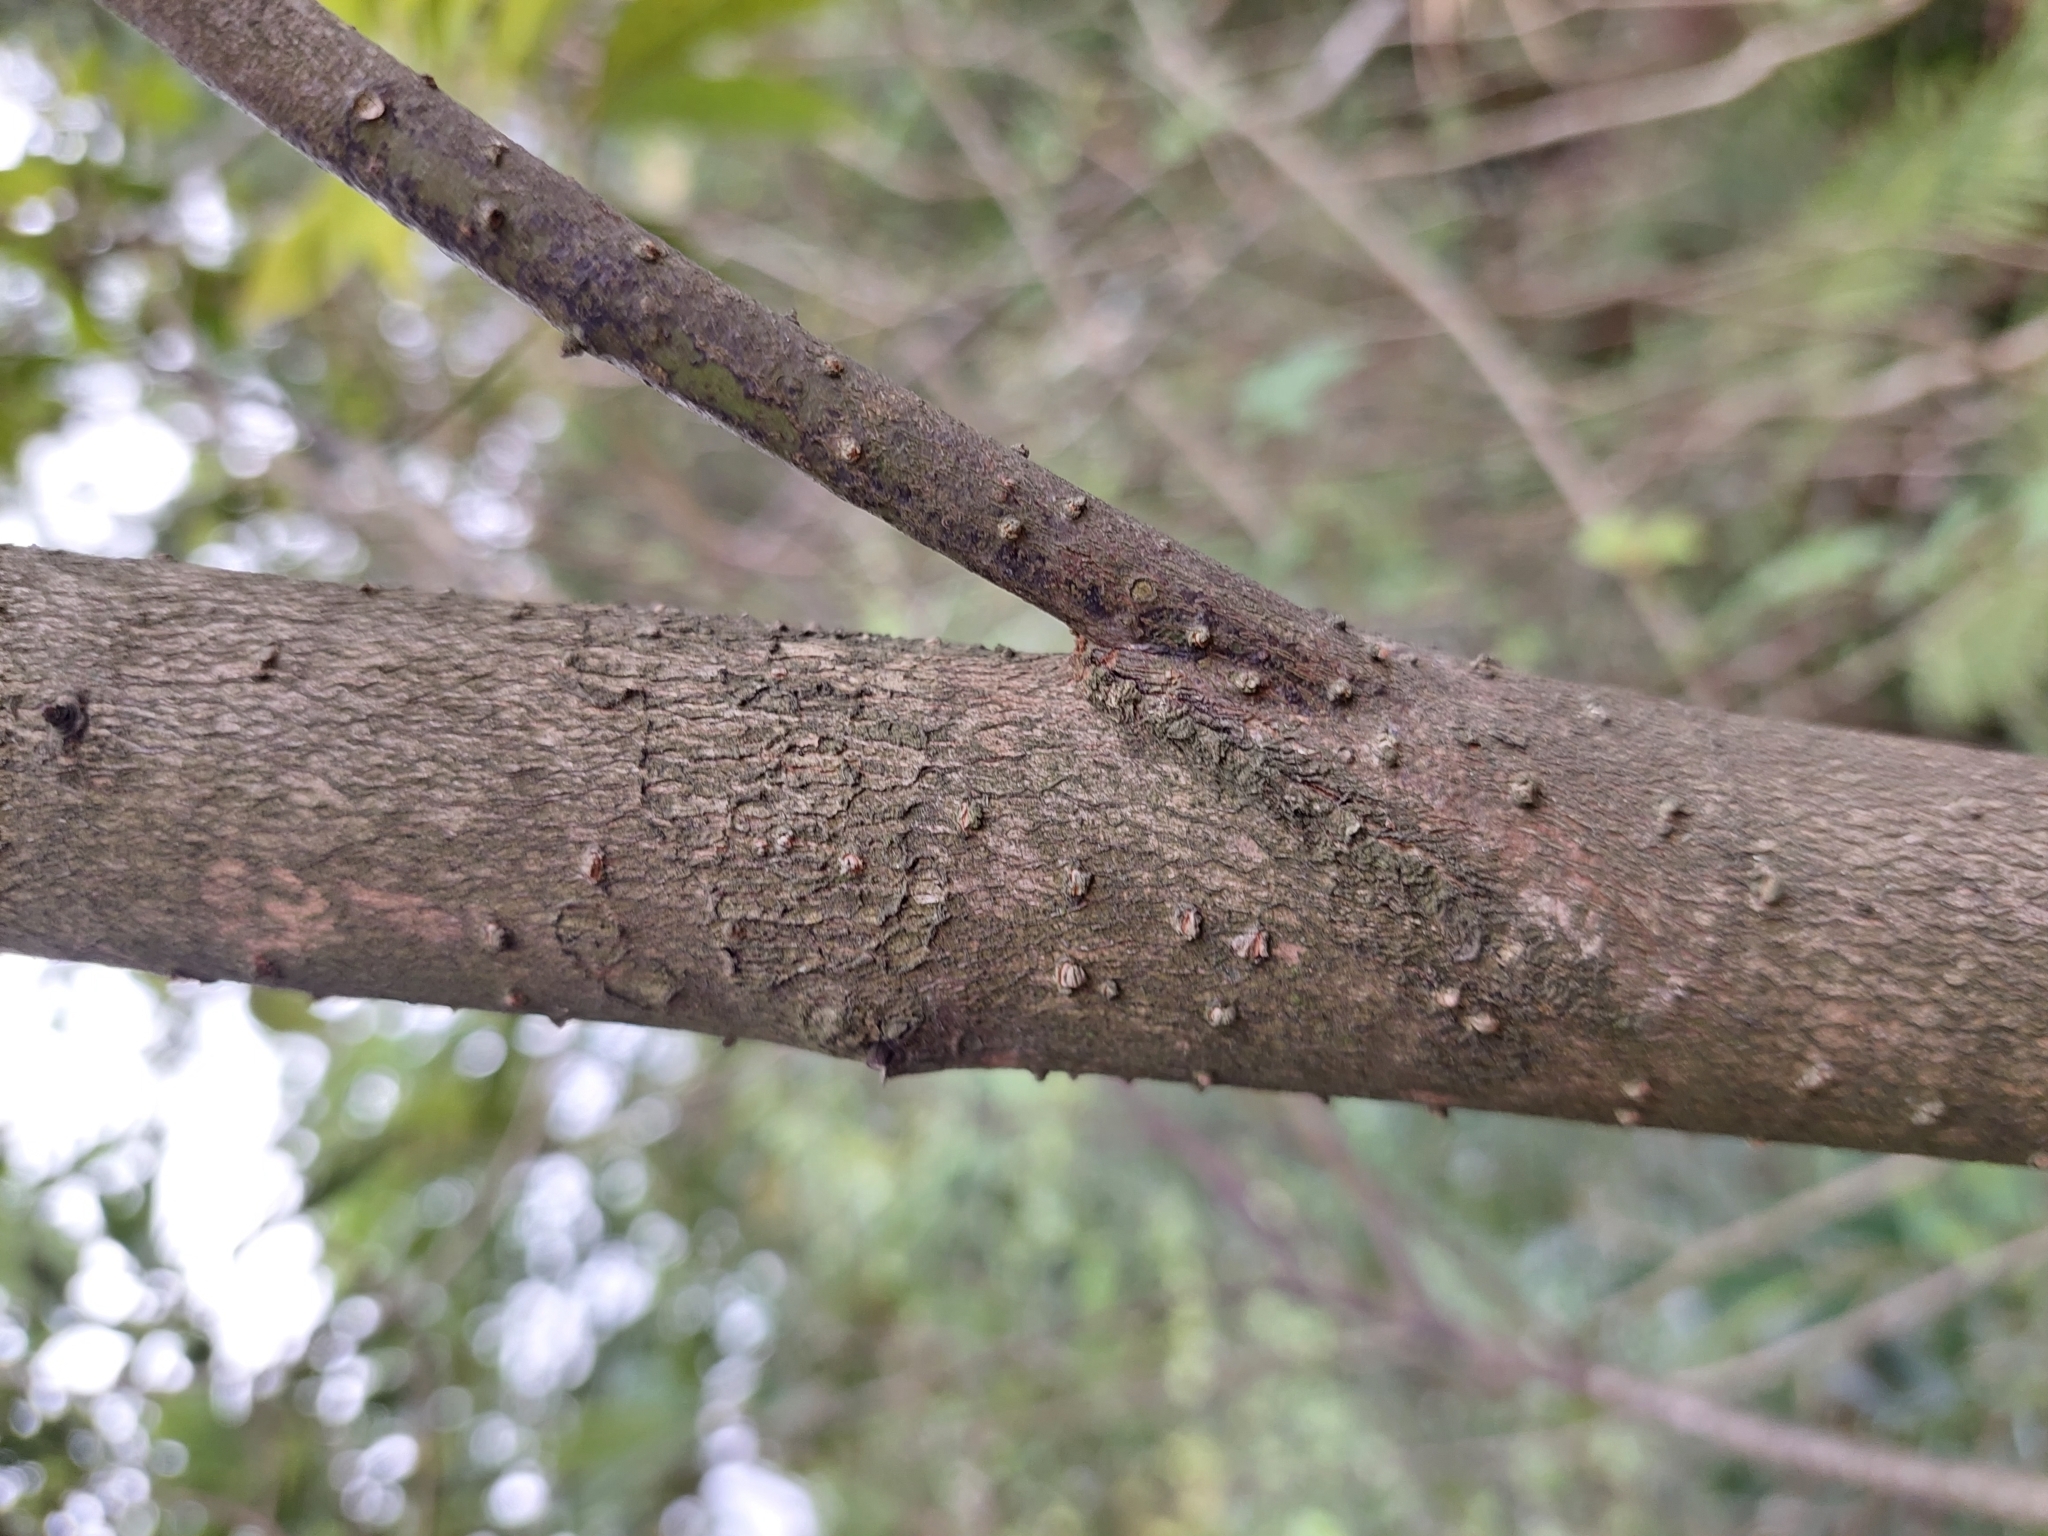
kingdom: Plantae
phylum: Tracheophyta
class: Magnoliopsida
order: Laurales
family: Lauraceae
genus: Machilus
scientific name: Machilus zuihoensis
